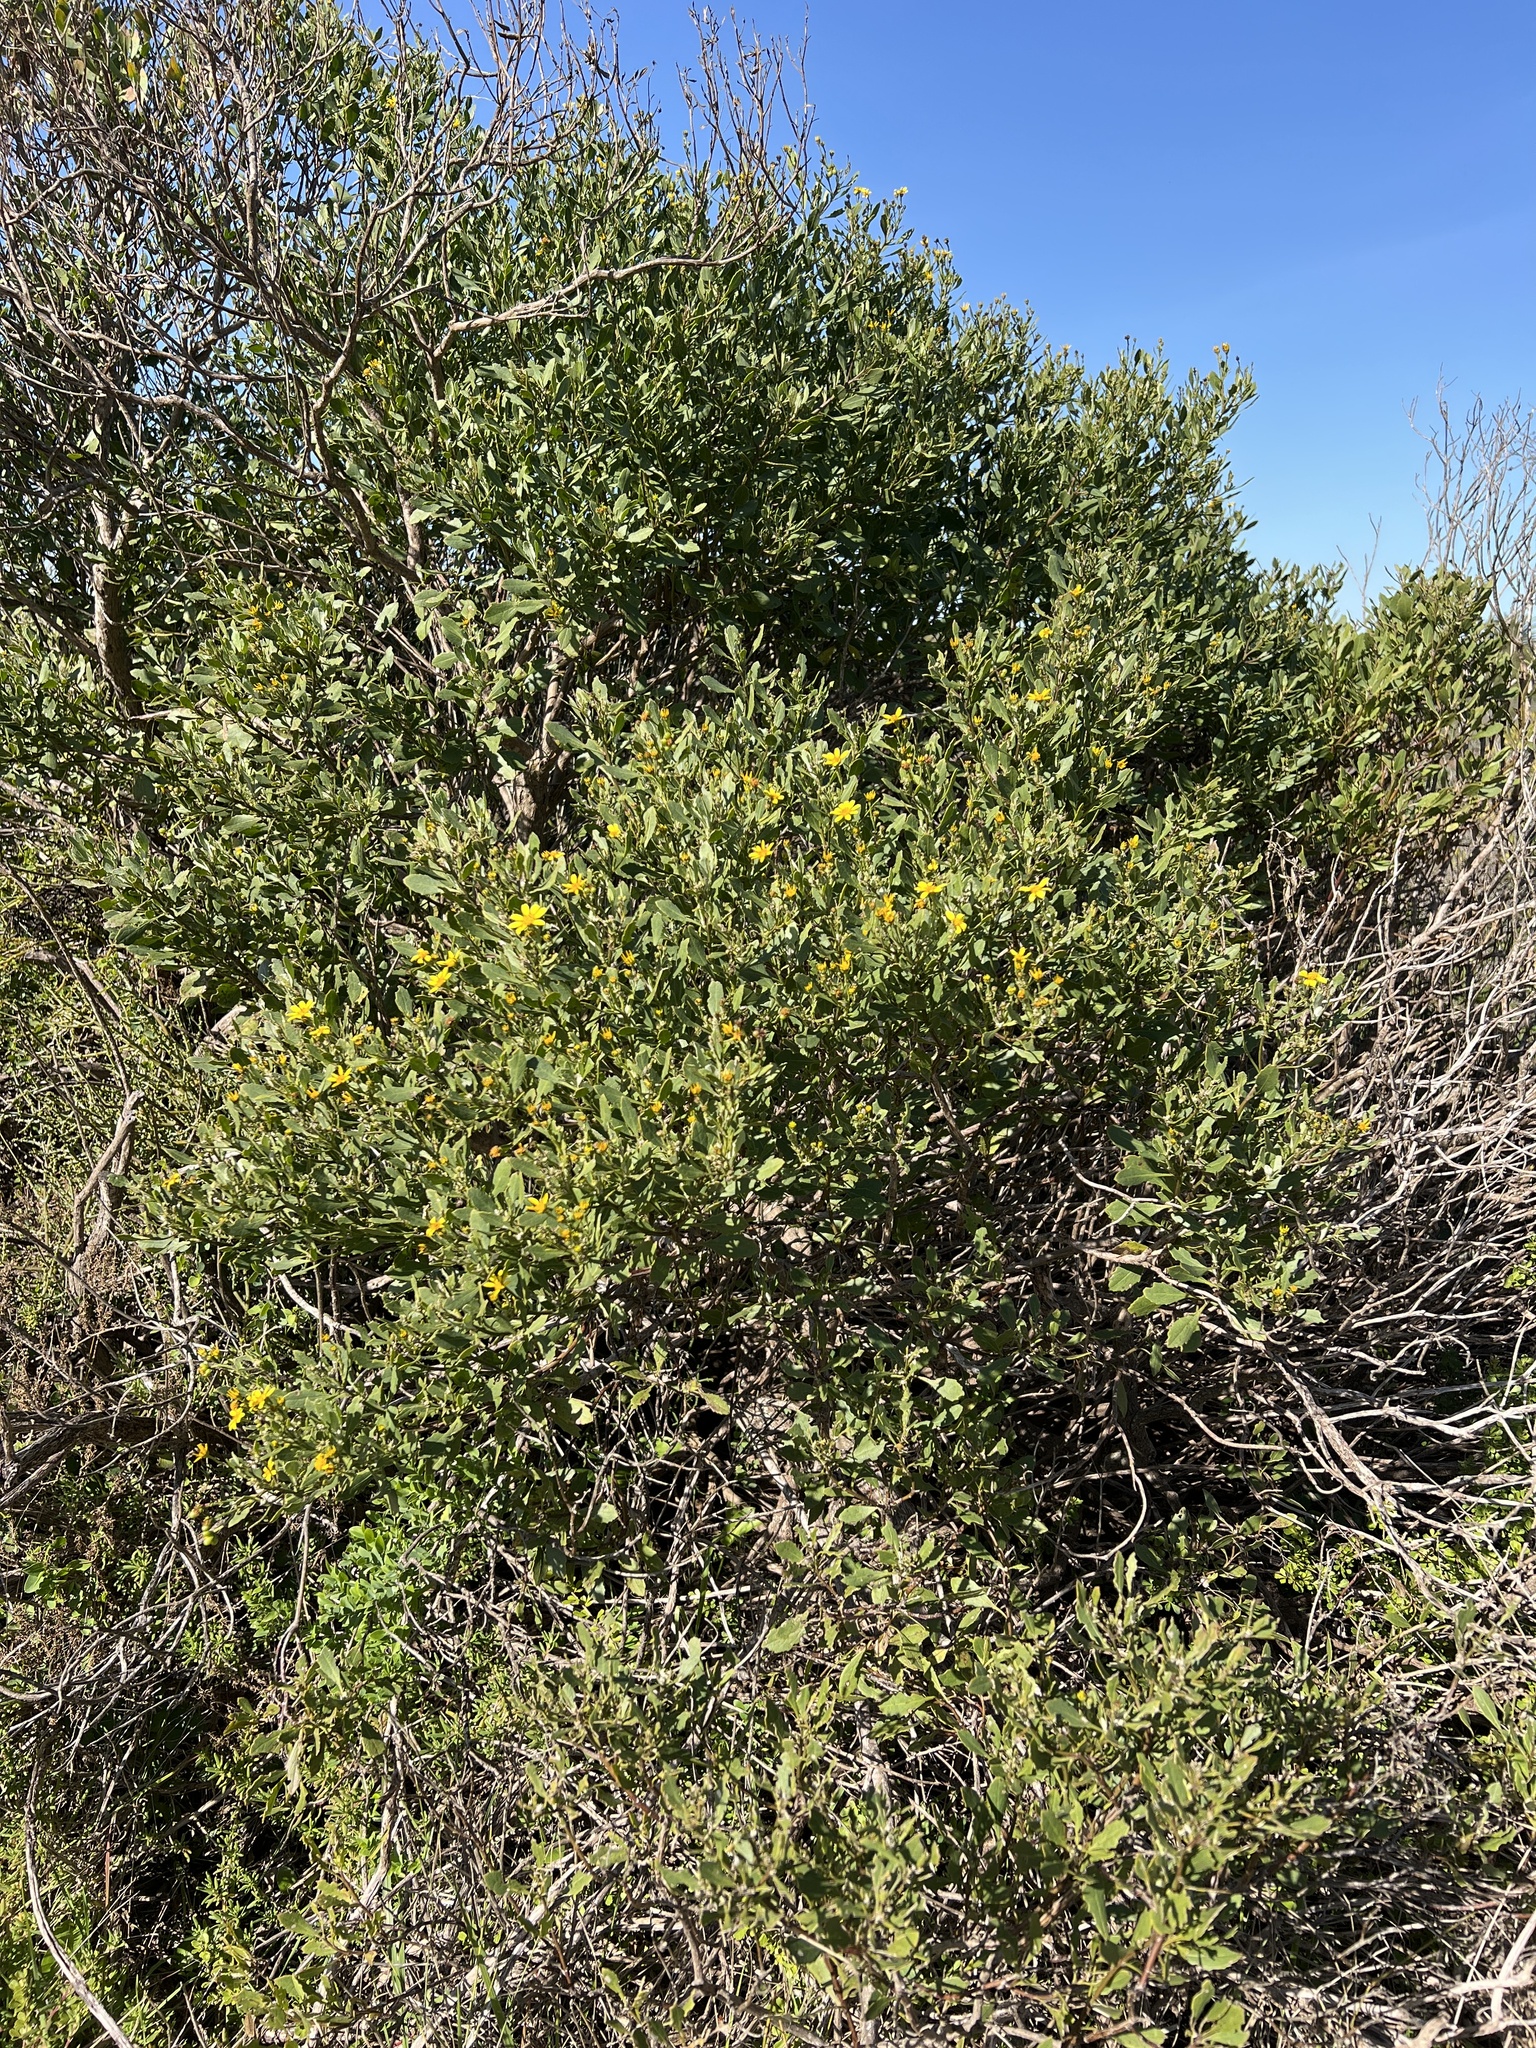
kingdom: Plantae
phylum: Tracheophyta
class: Magnoliopsida
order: Asterales
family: Asteraceae
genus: Osteospermum
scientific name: Osteospermum moniliferum
